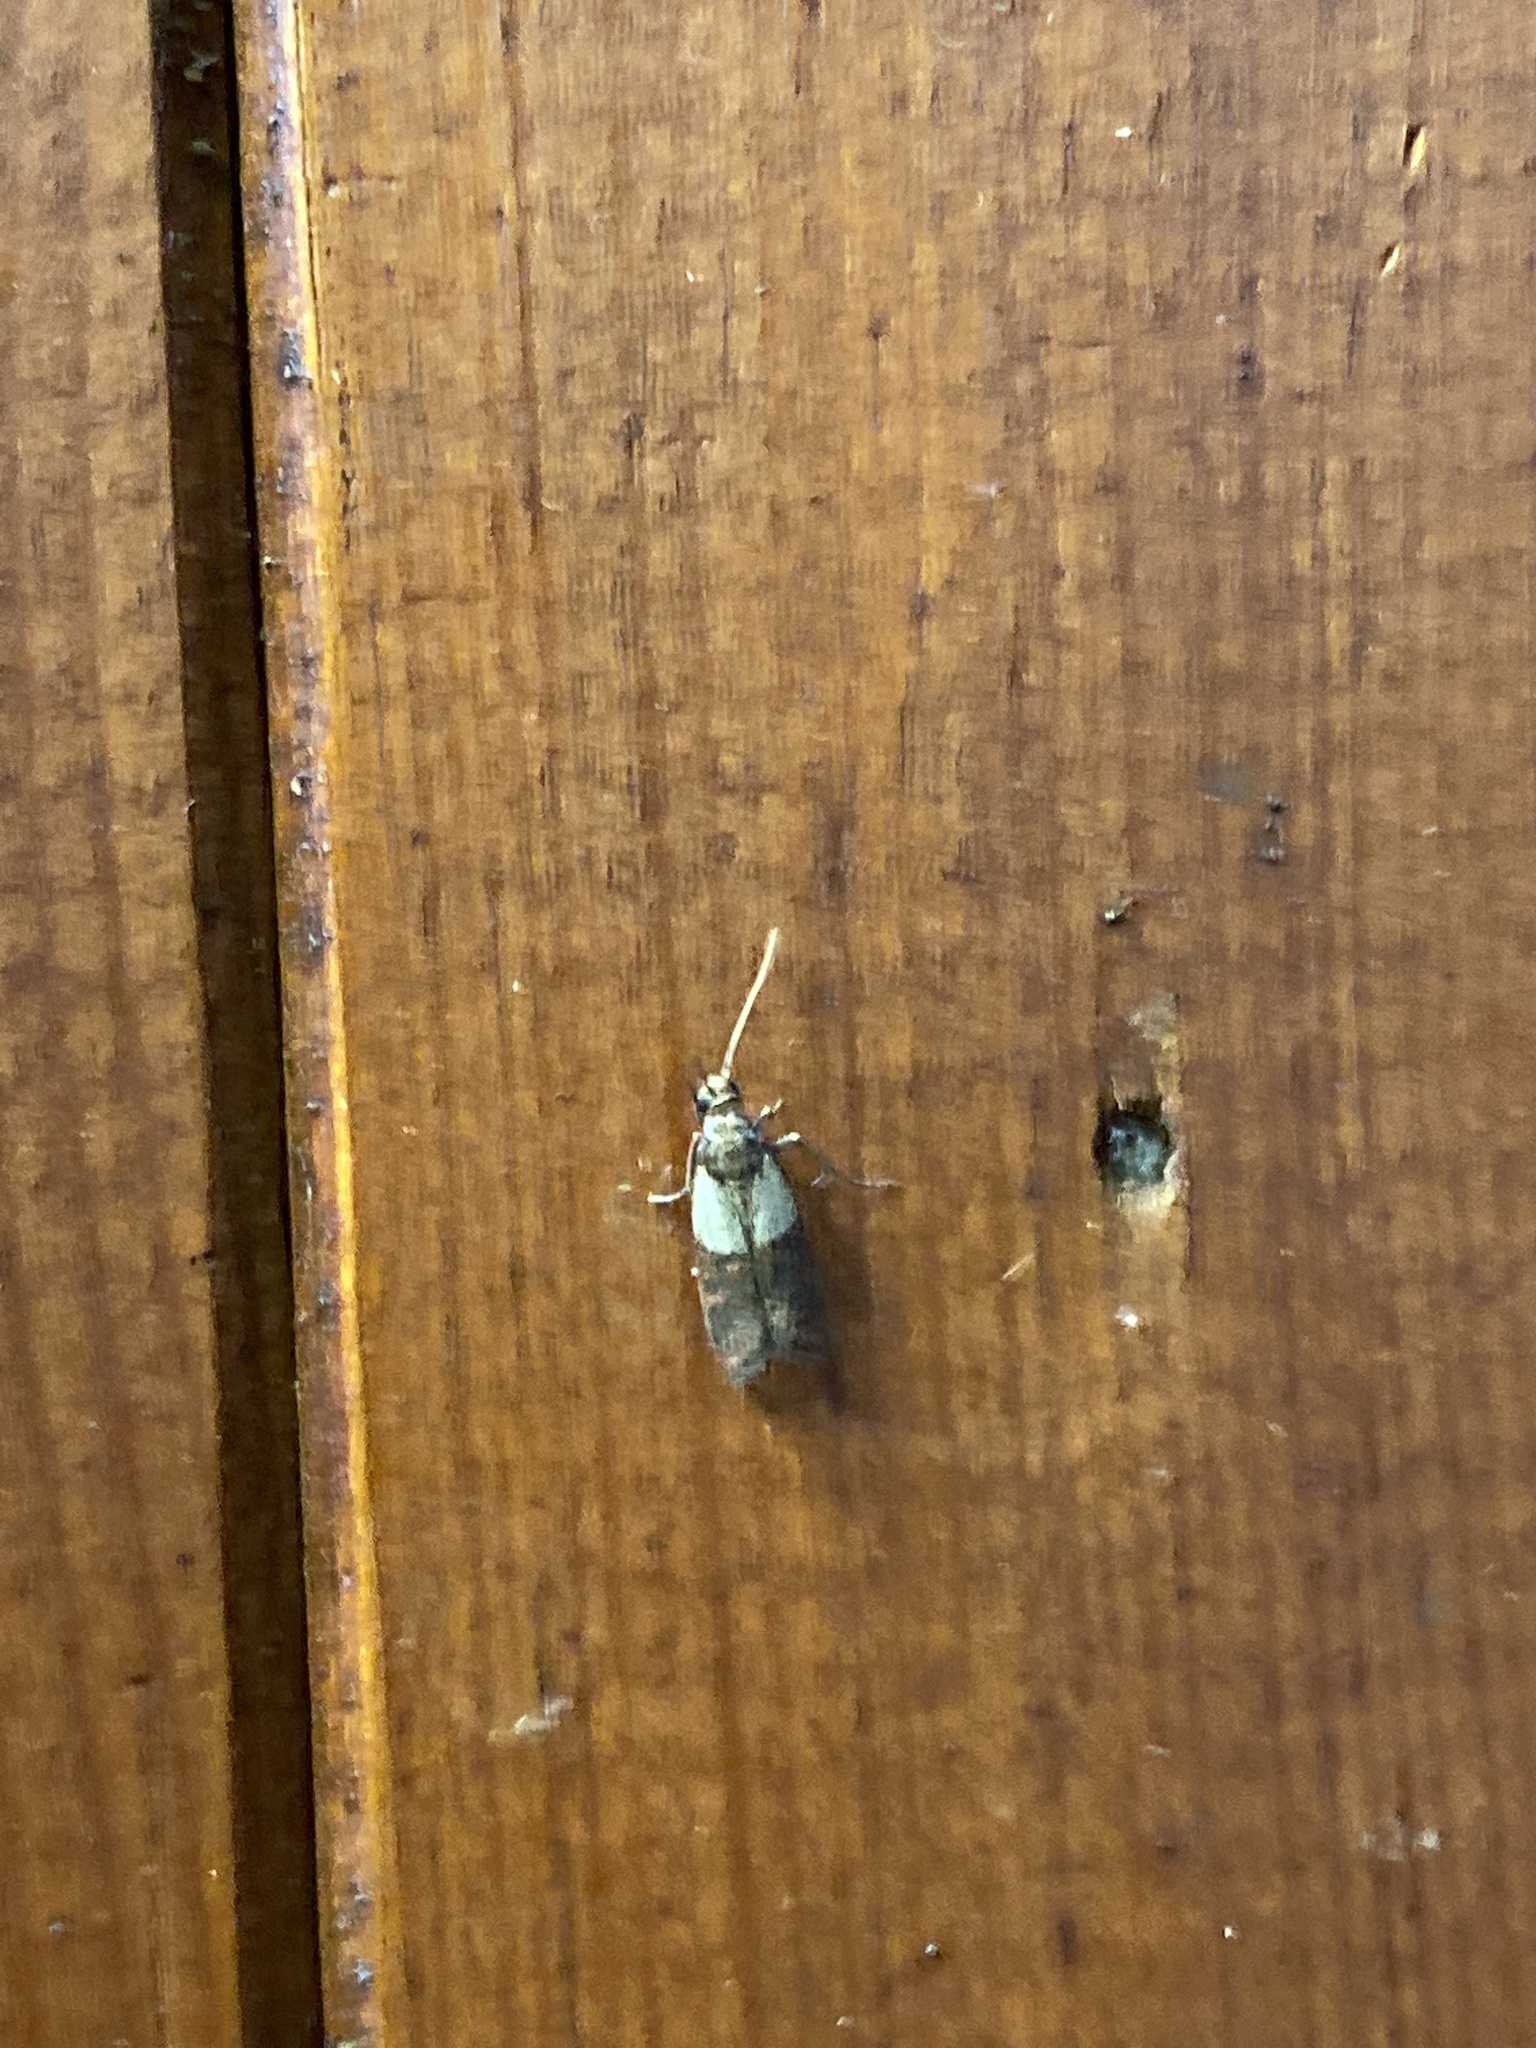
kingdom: Animalia
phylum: Arthropoda
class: Insecta
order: Lepidoptera
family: Pyralidae
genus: Plodia
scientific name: Plodia interpunctella
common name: Indian meal moth
